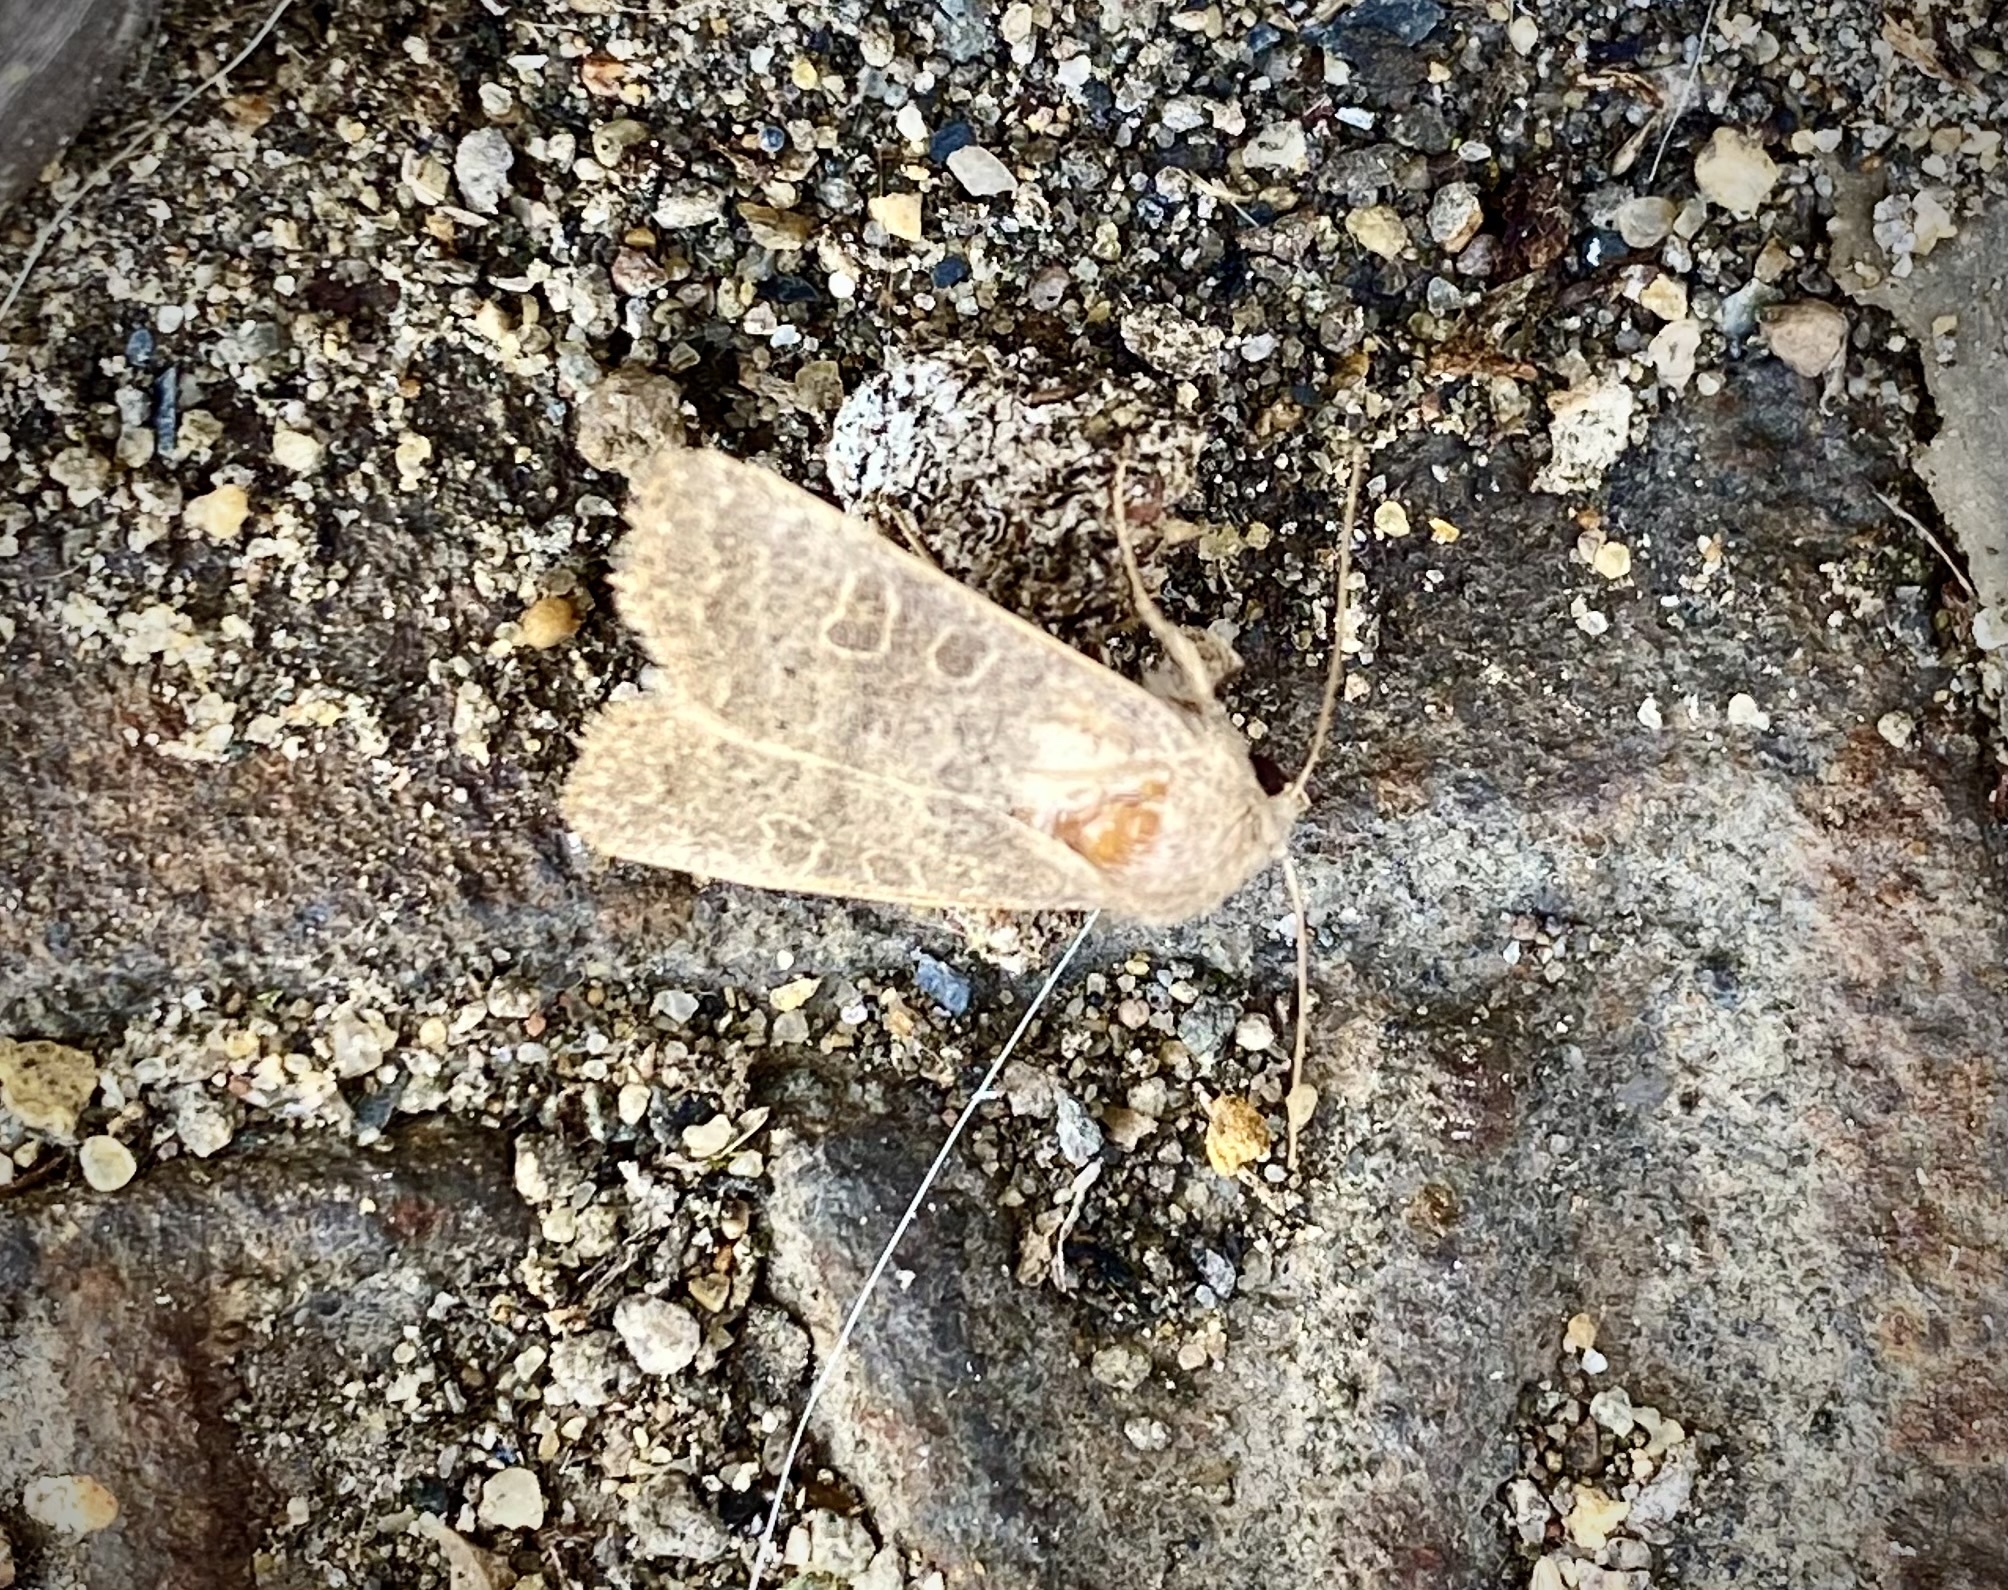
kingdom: Animalia
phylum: Arthropoda
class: Insecta
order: Lepidoptera
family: Noctuidae
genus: Hoplodrina
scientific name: Hoplodrina ambigua
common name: Vine's rustic
